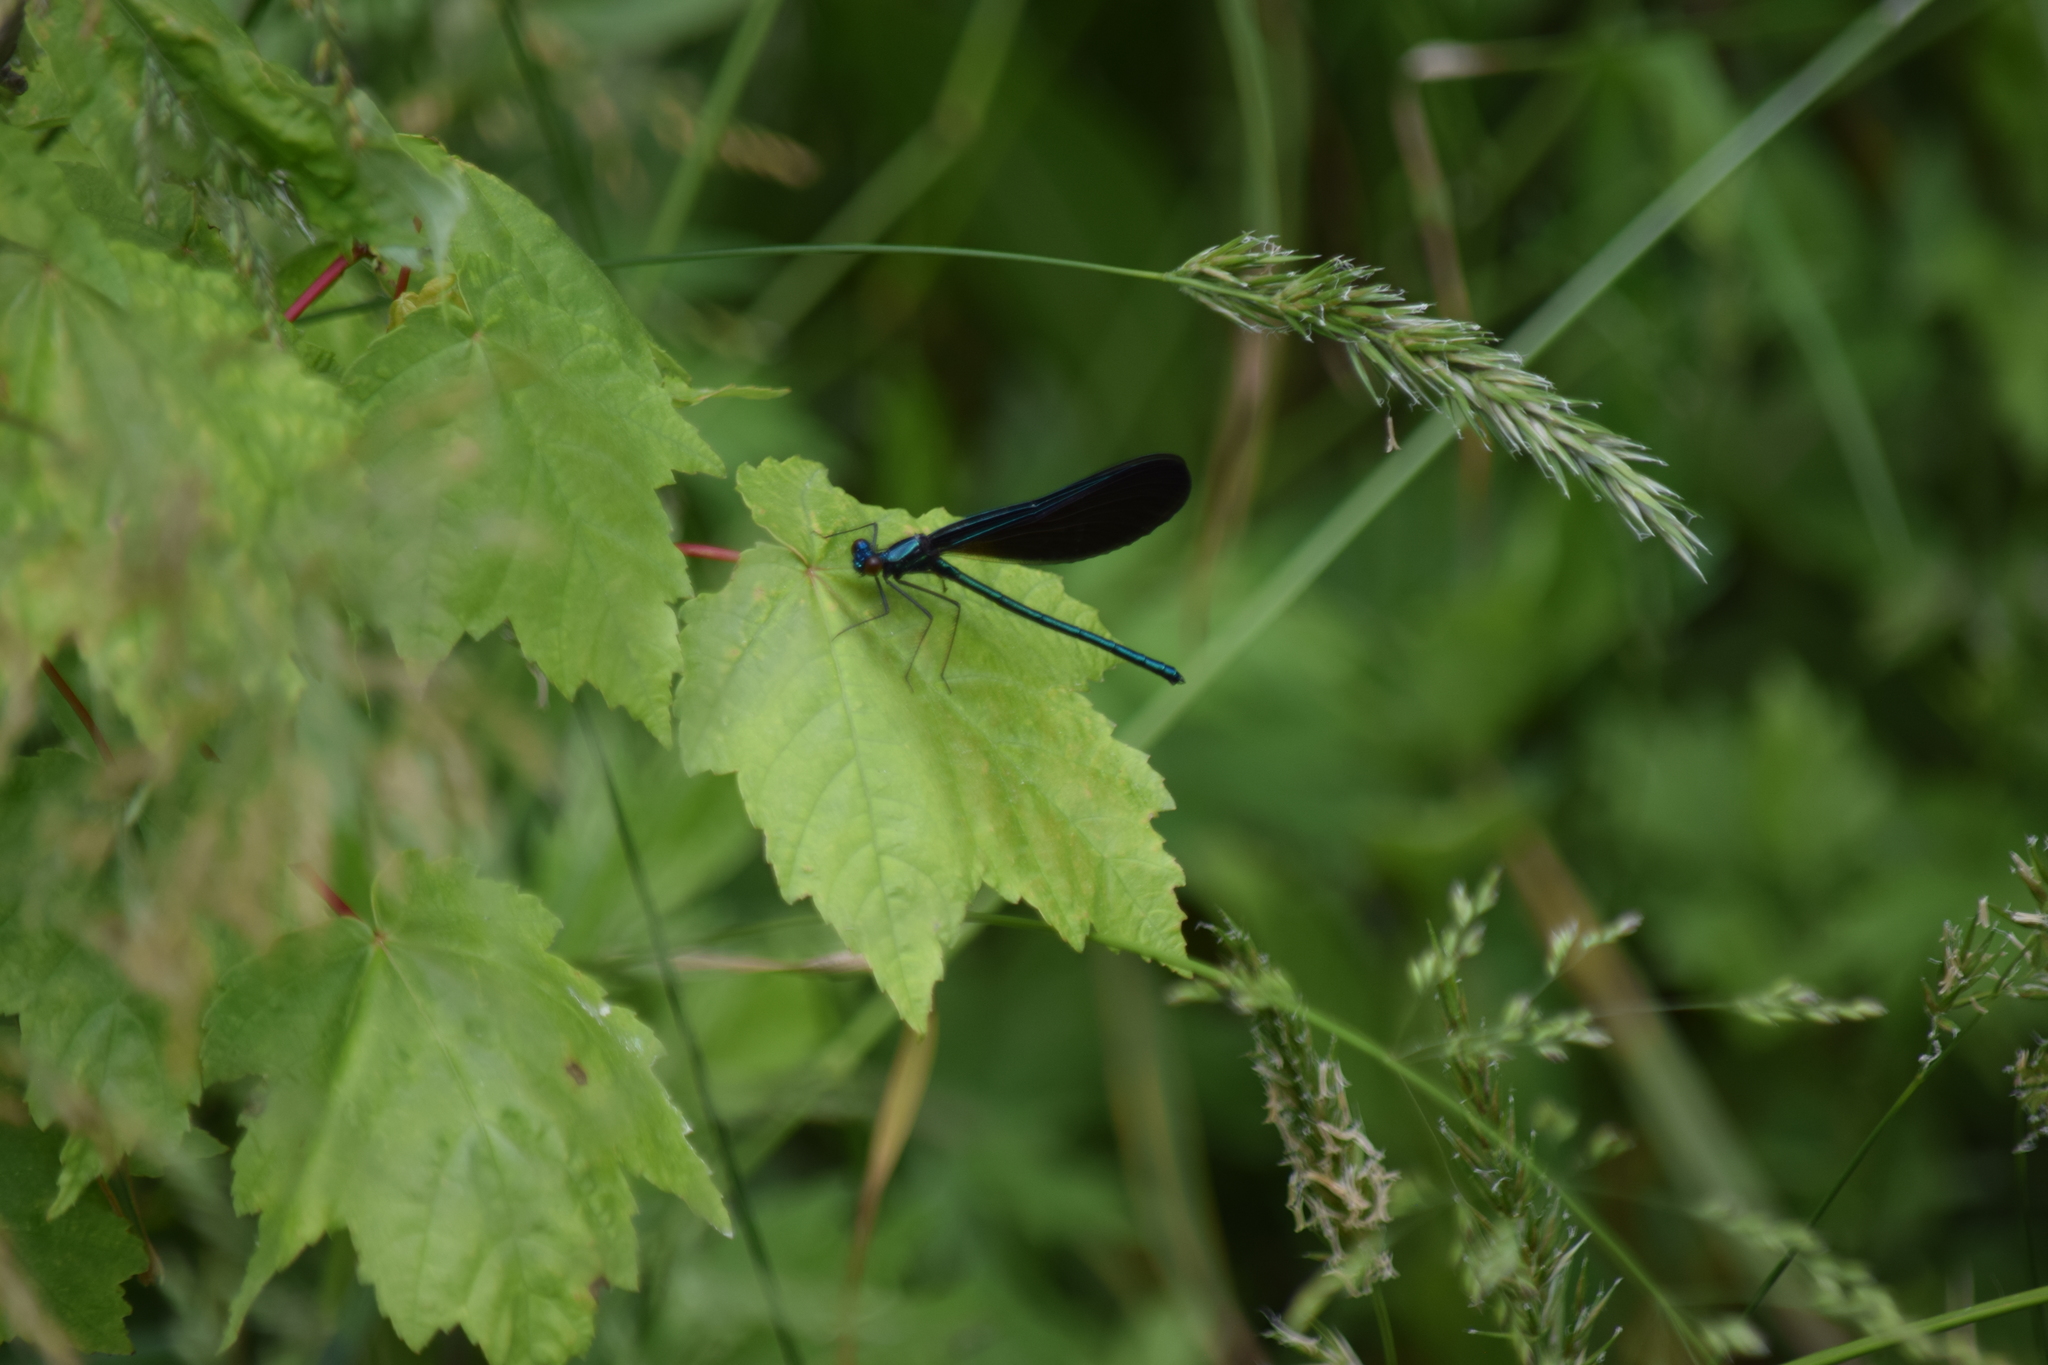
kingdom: Animalia
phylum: Arthropoda
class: Insecta
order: Odonata
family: Calopterygidae
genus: Calopteryx
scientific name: Calopteryx maculata
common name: Ebony jewelwing
